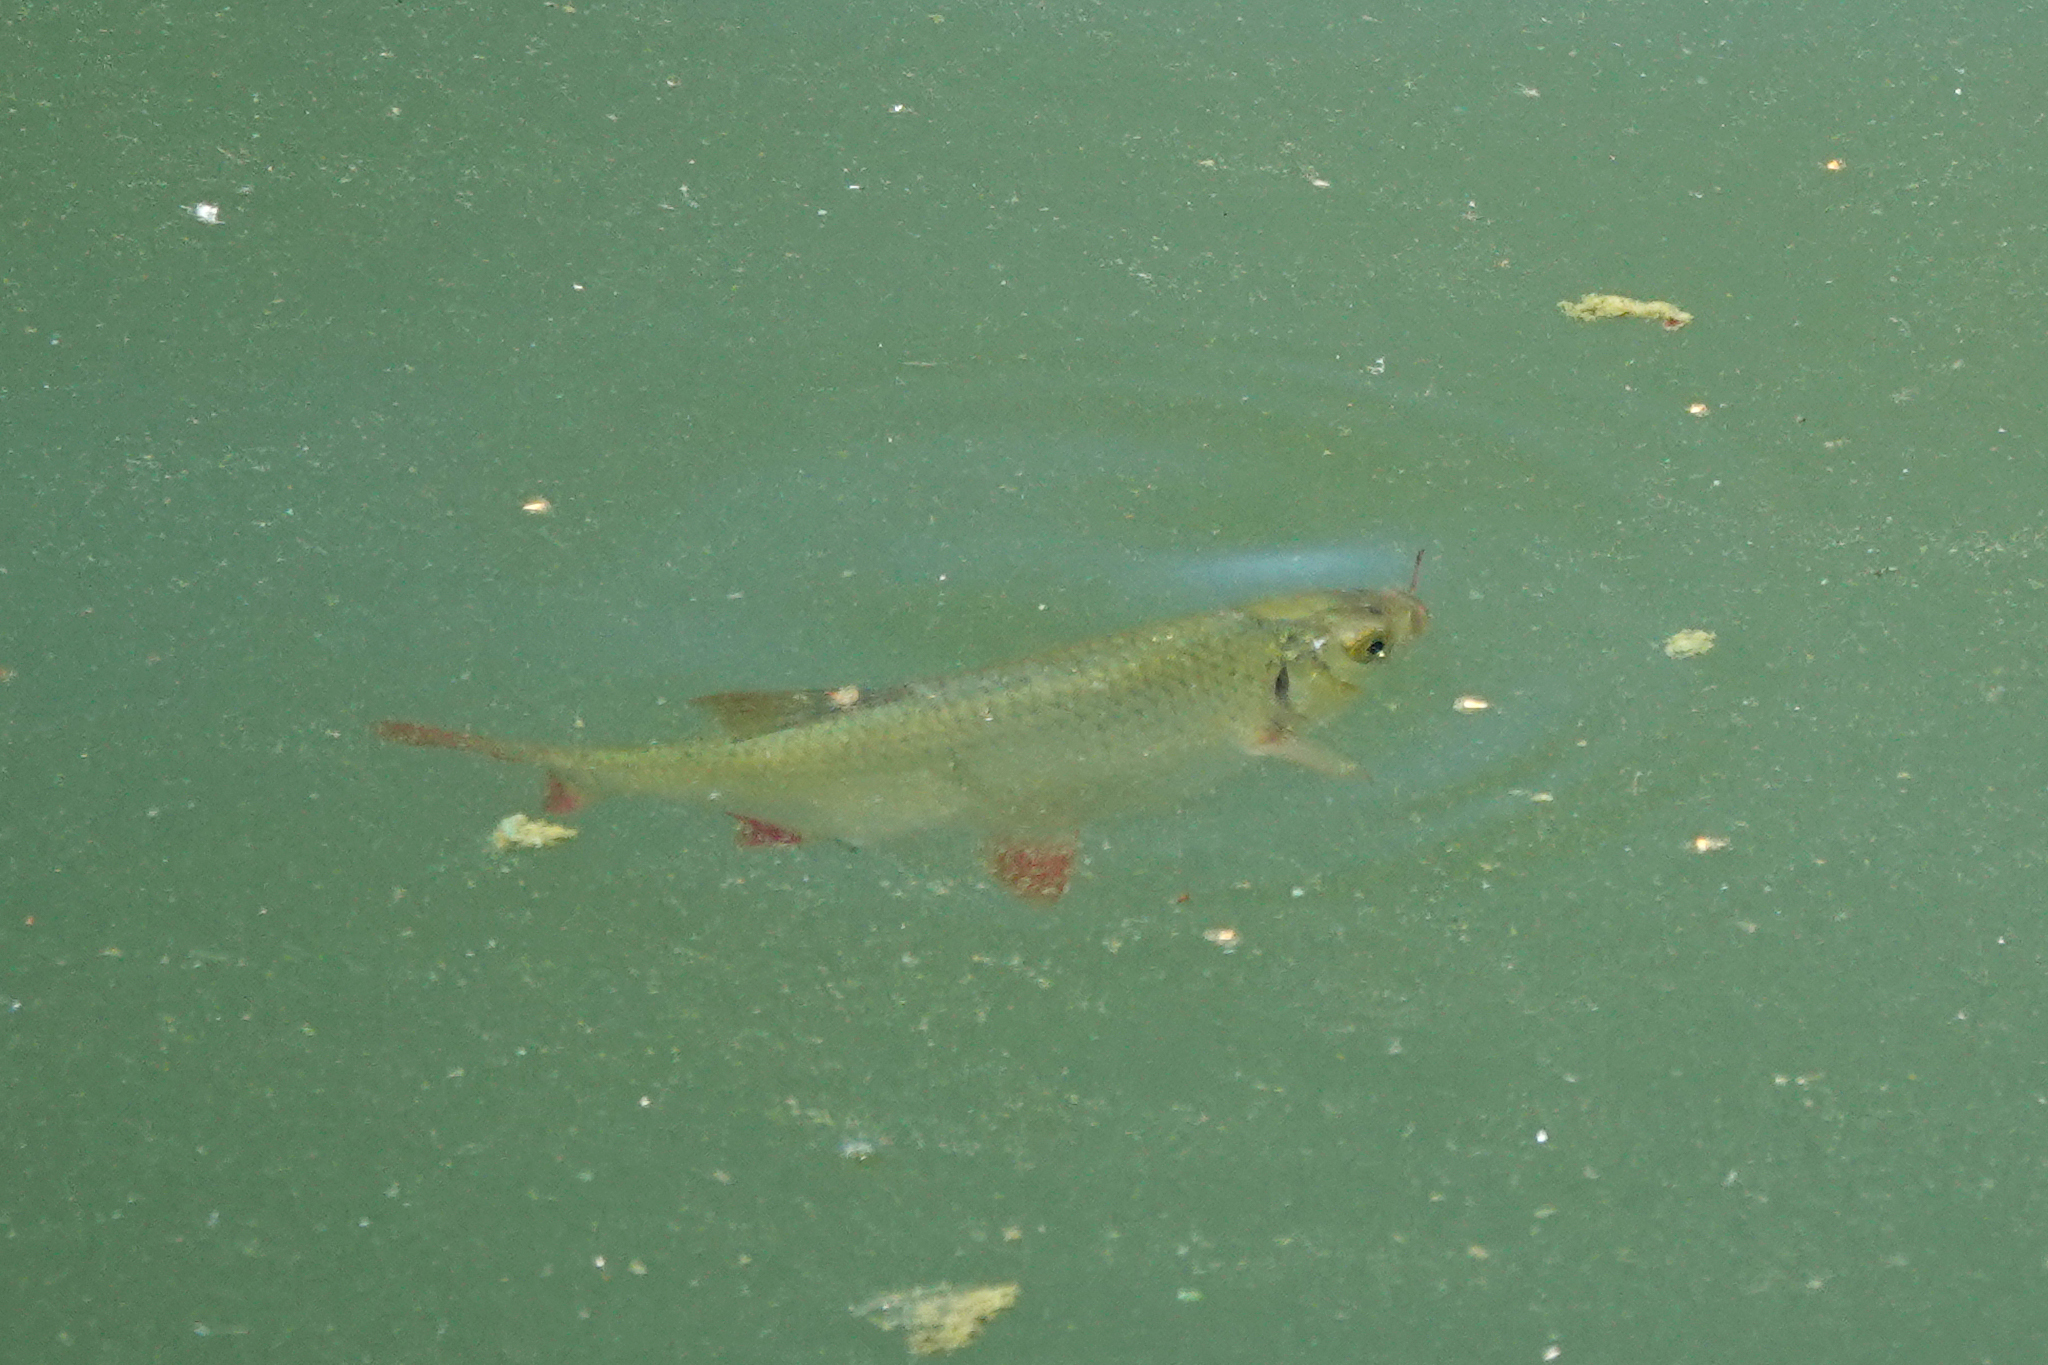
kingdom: Animalia
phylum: Chordata
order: Cypriniformes
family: Cyprinidae
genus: Scardinius
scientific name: Scardinius erythrophthalmus
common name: Rudd
